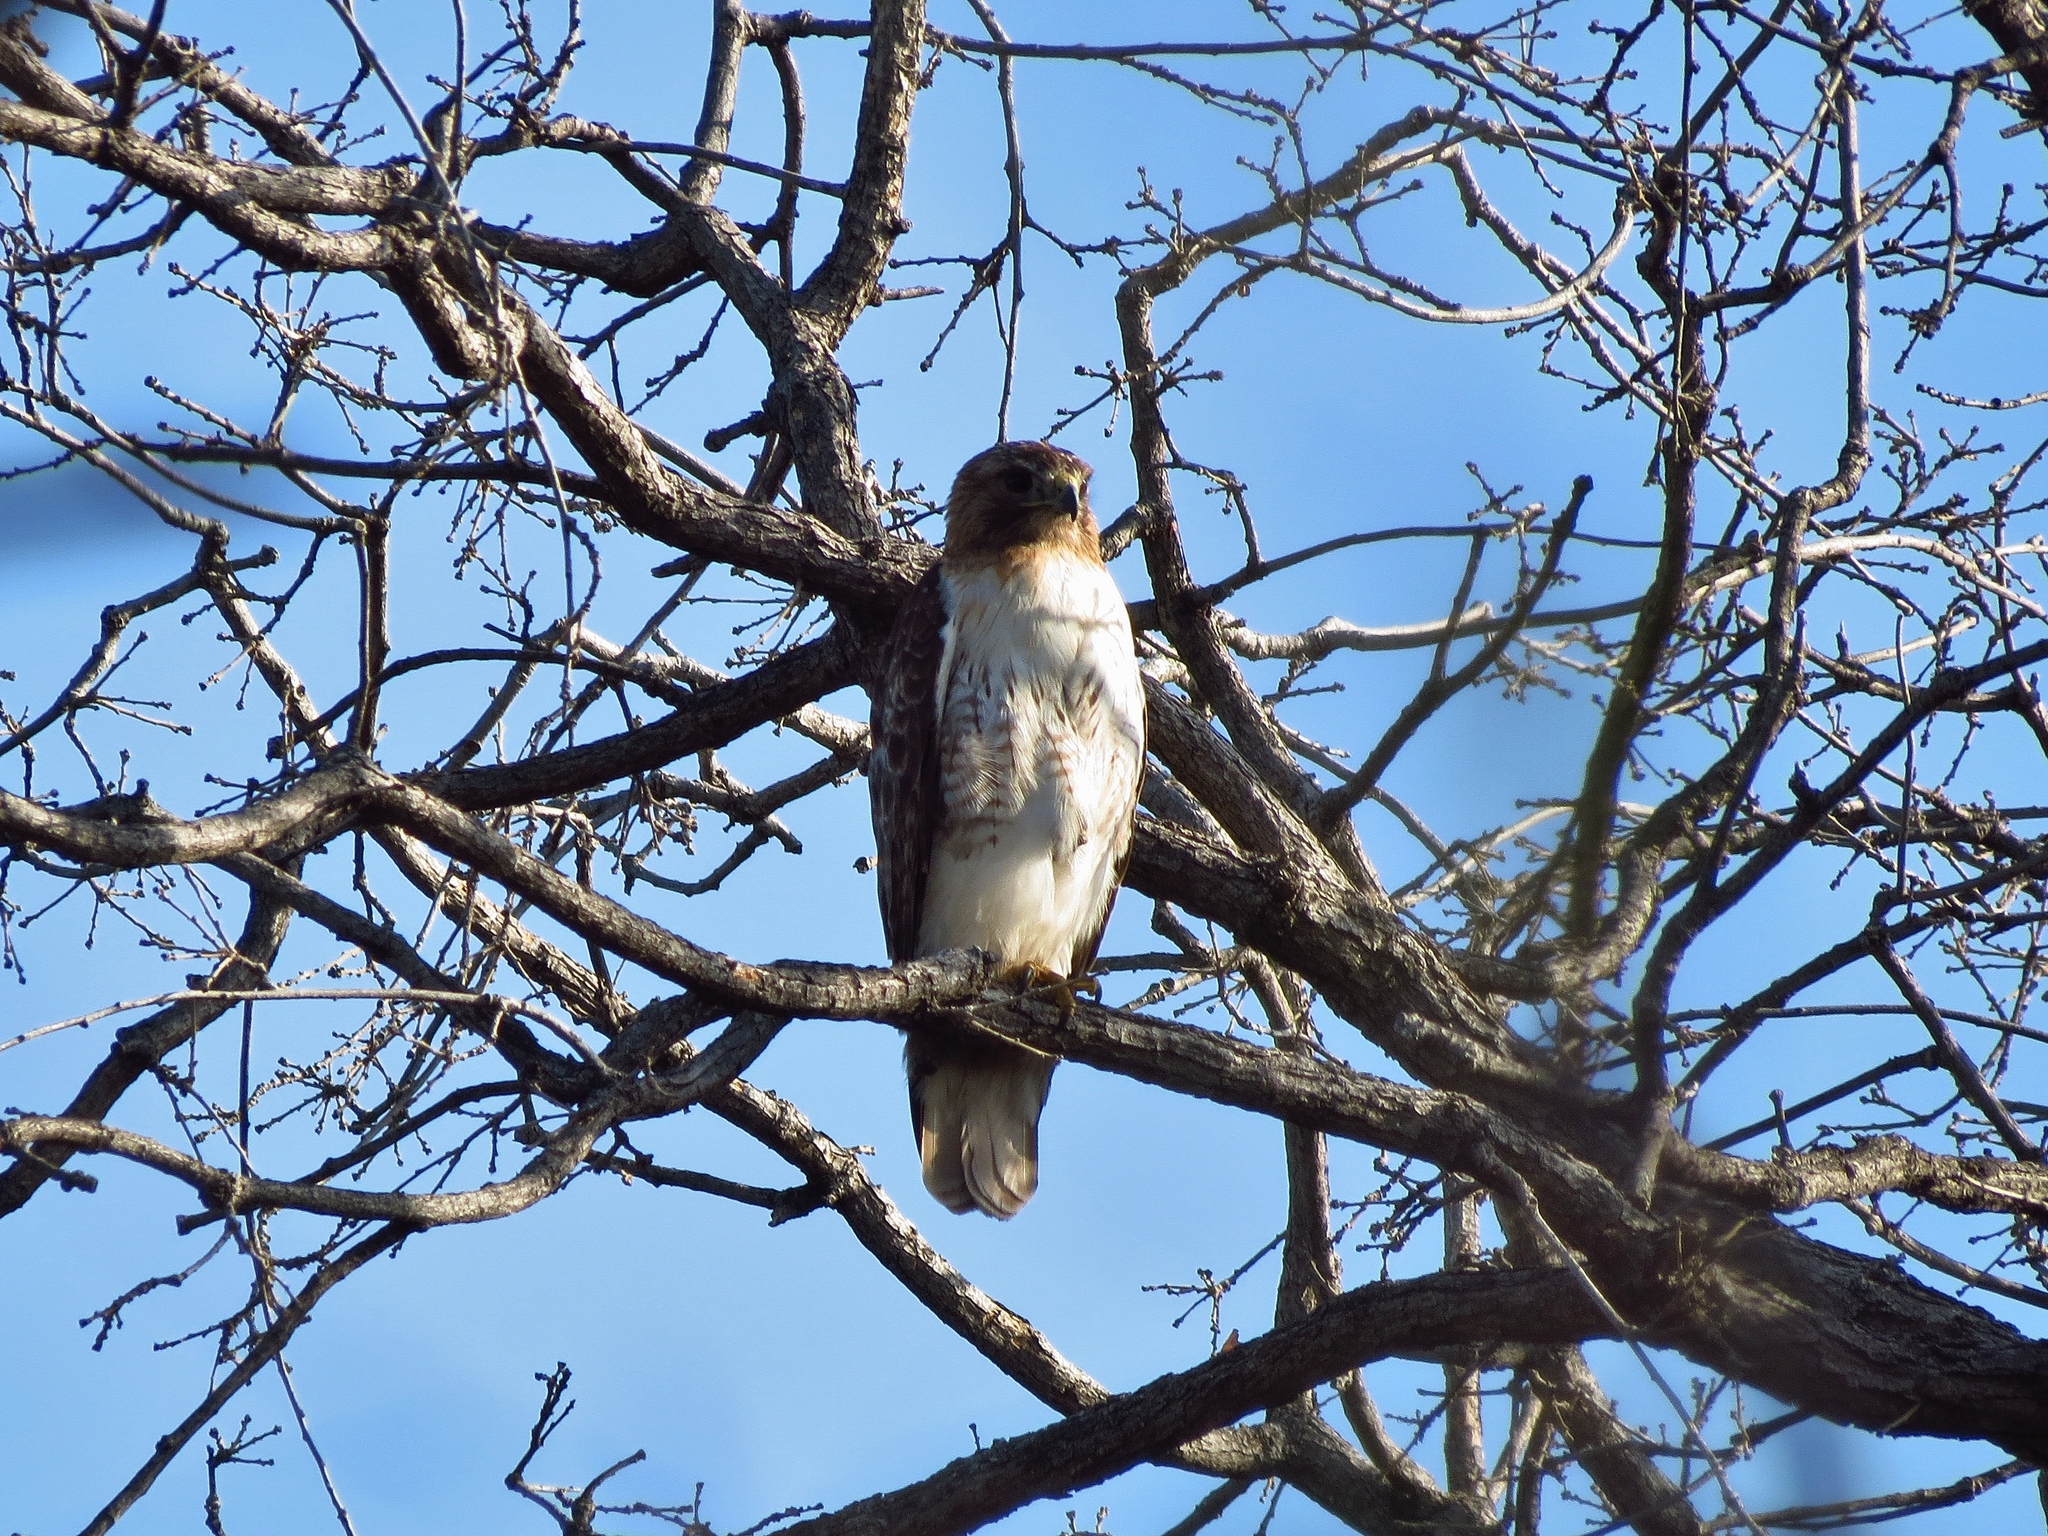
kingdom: Animalia
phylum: Chordata
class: Aves
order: Accipitriformes
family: Accipitridae
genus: Buteo
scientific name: Buteo jamaicensis
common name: Red-tailed hawk
